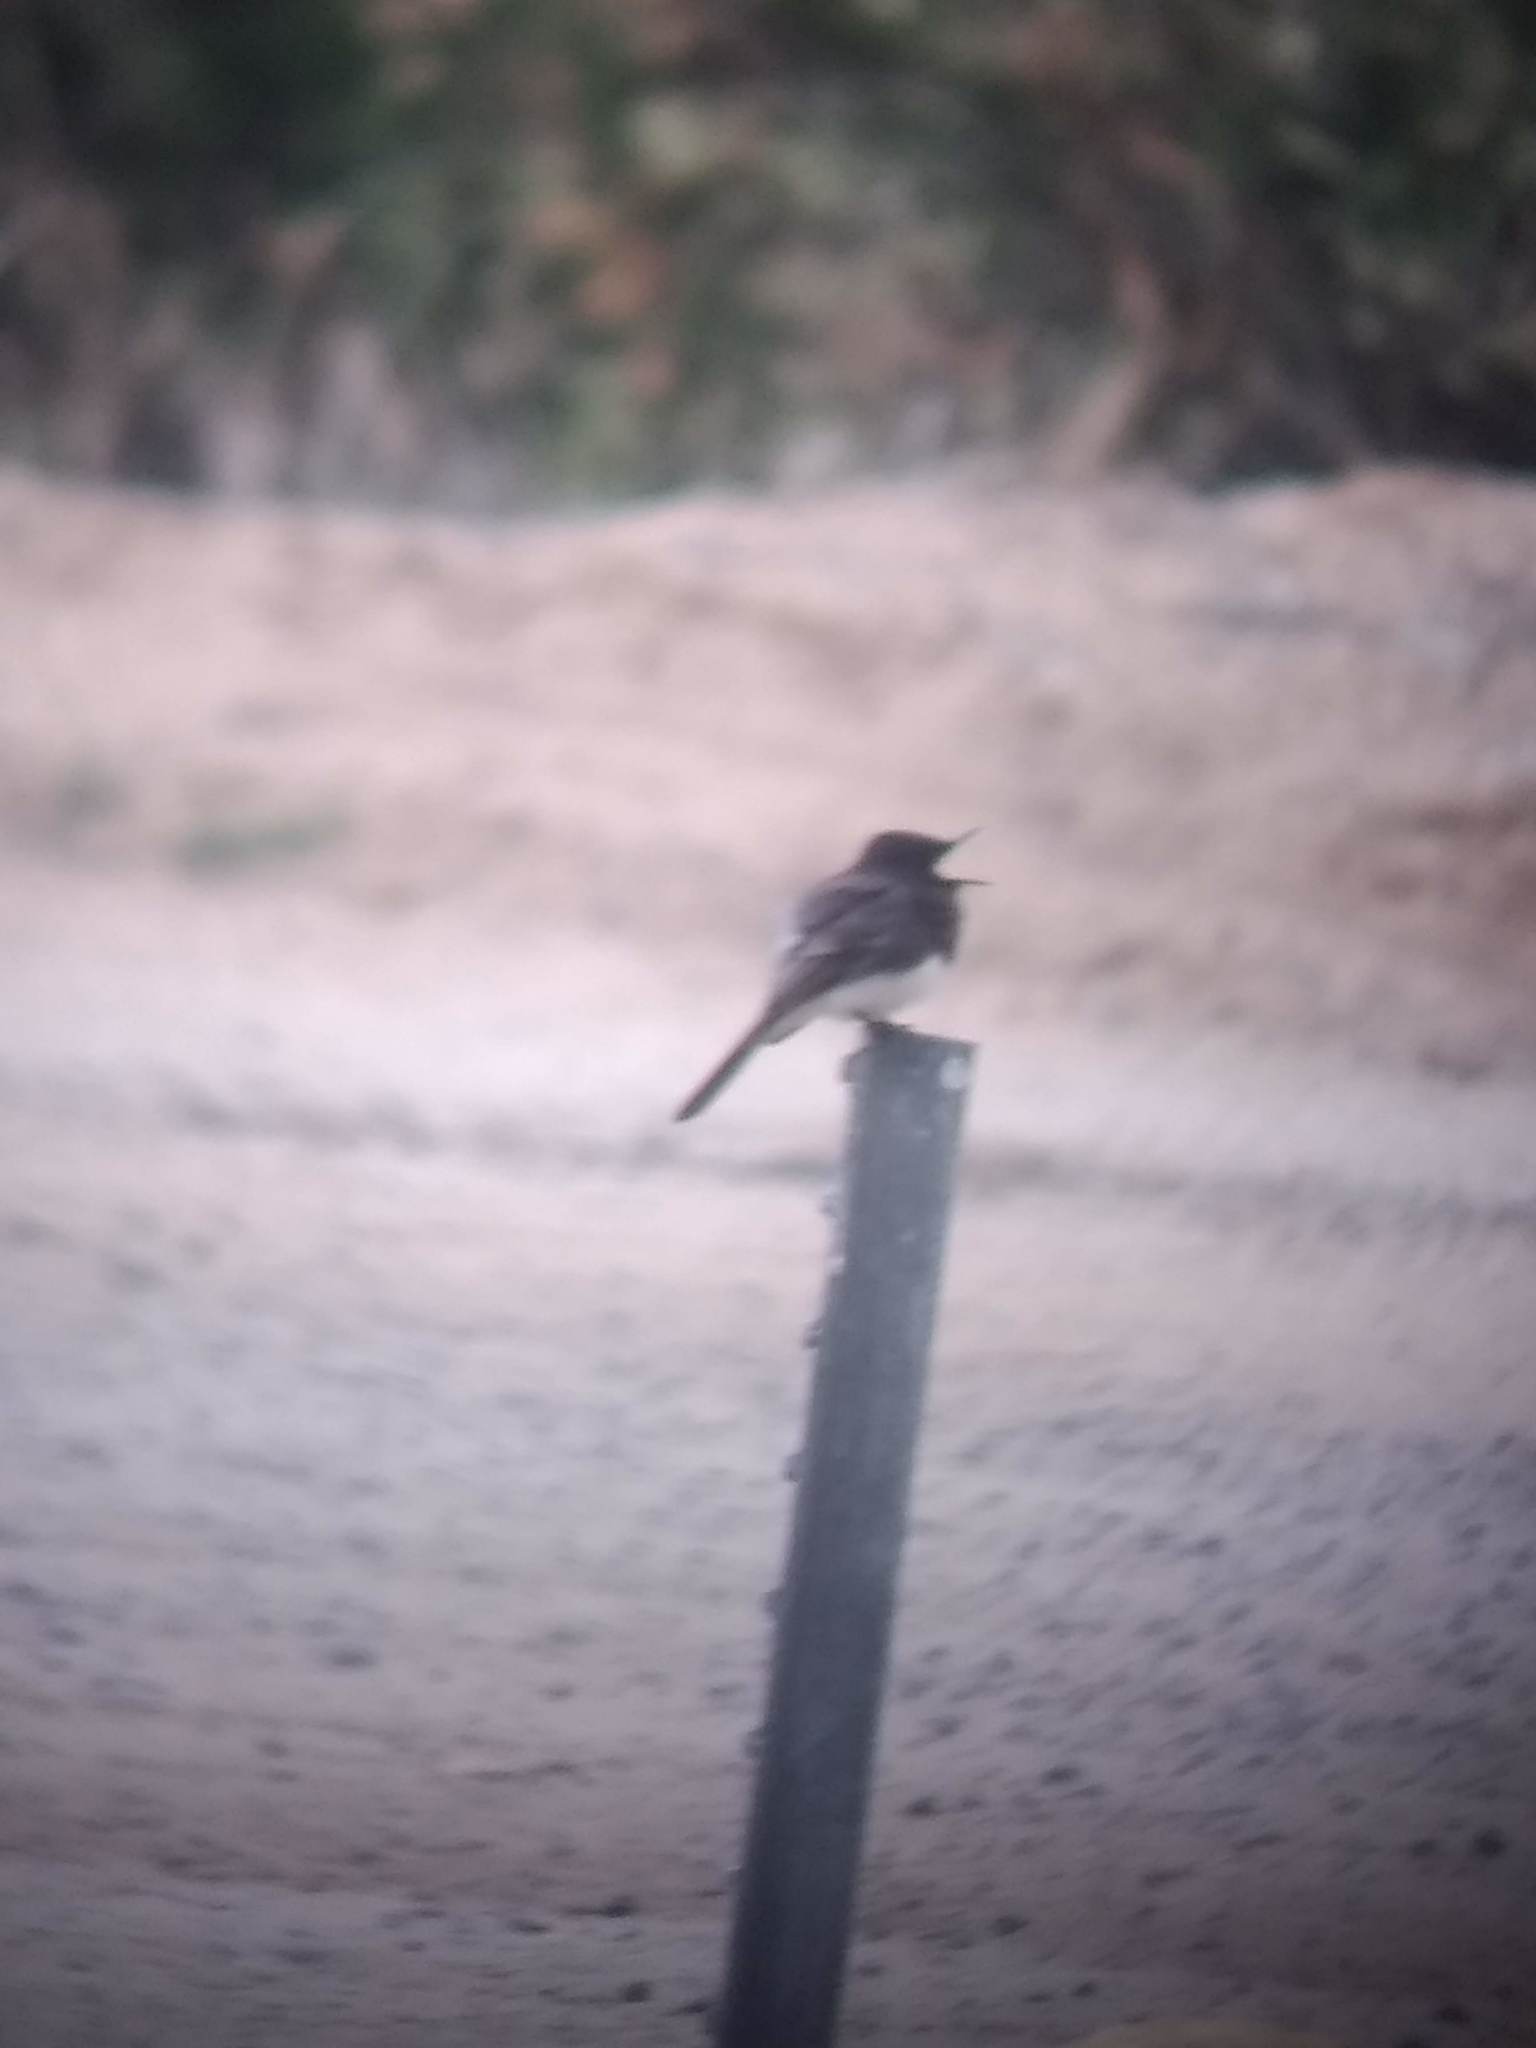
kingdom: Animalia
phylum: Chordata
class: Aves
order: Passeriformes
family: Tyrannidae
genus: Sayornis
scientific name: Sayornis nigricans
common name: Black phoebe
